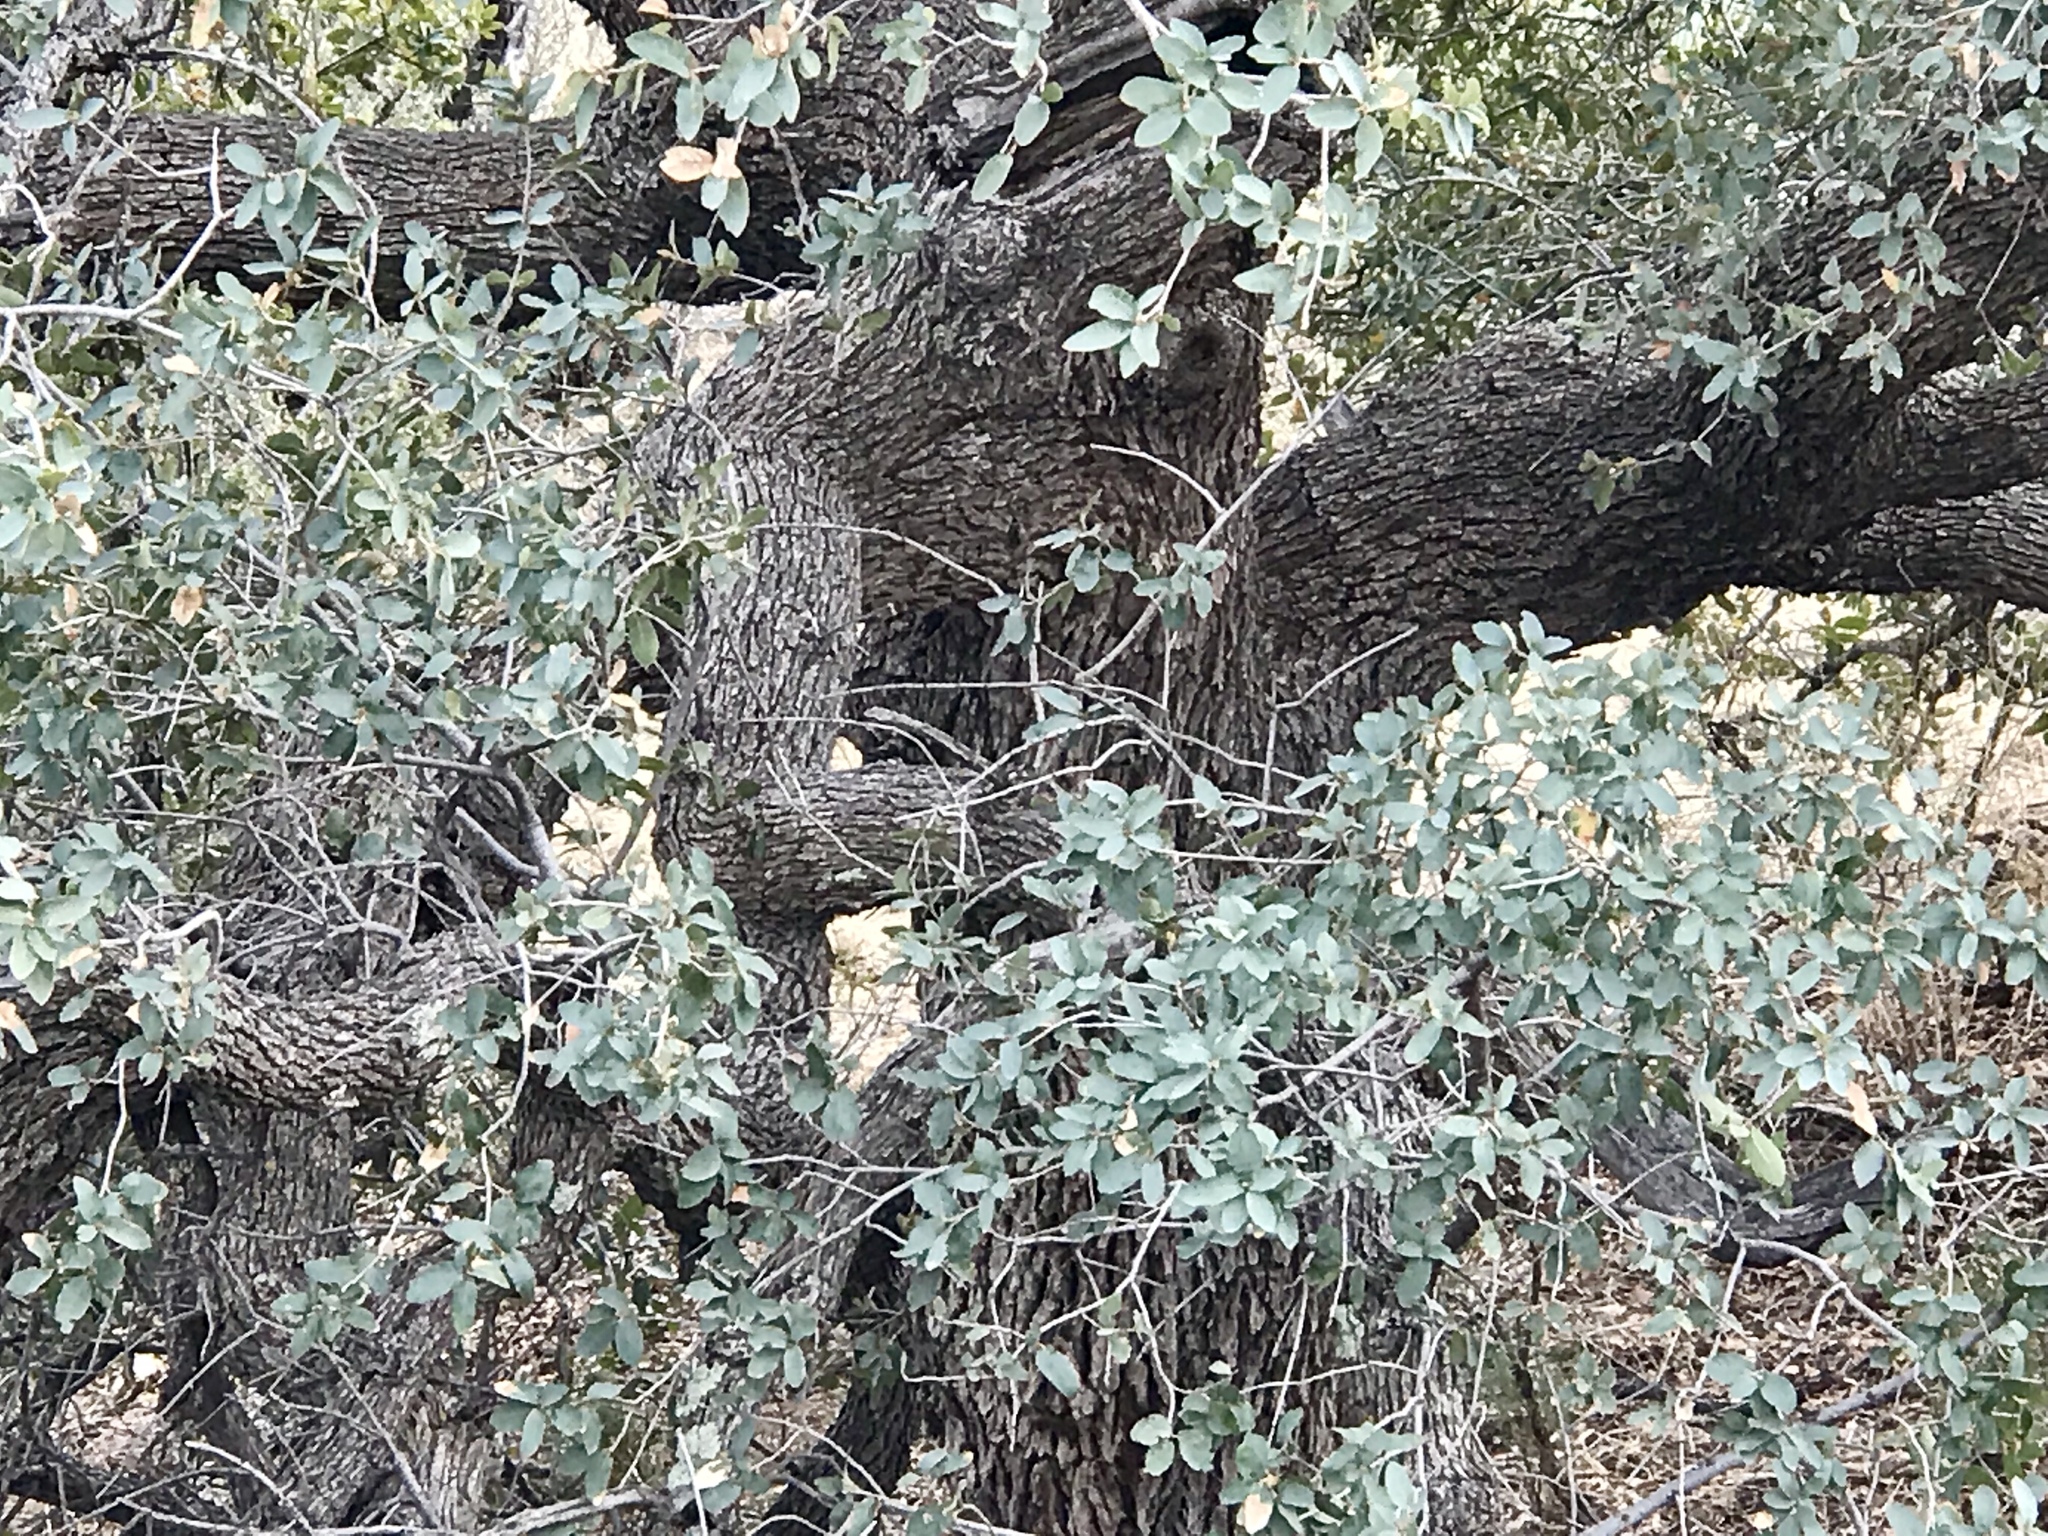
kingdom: Plantae
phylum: Tracheophyta
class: Magnoliopsida
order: Fagales
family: Fagaceae
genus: Quercus
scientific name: Quercus arizonica
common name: Arizona white oak
